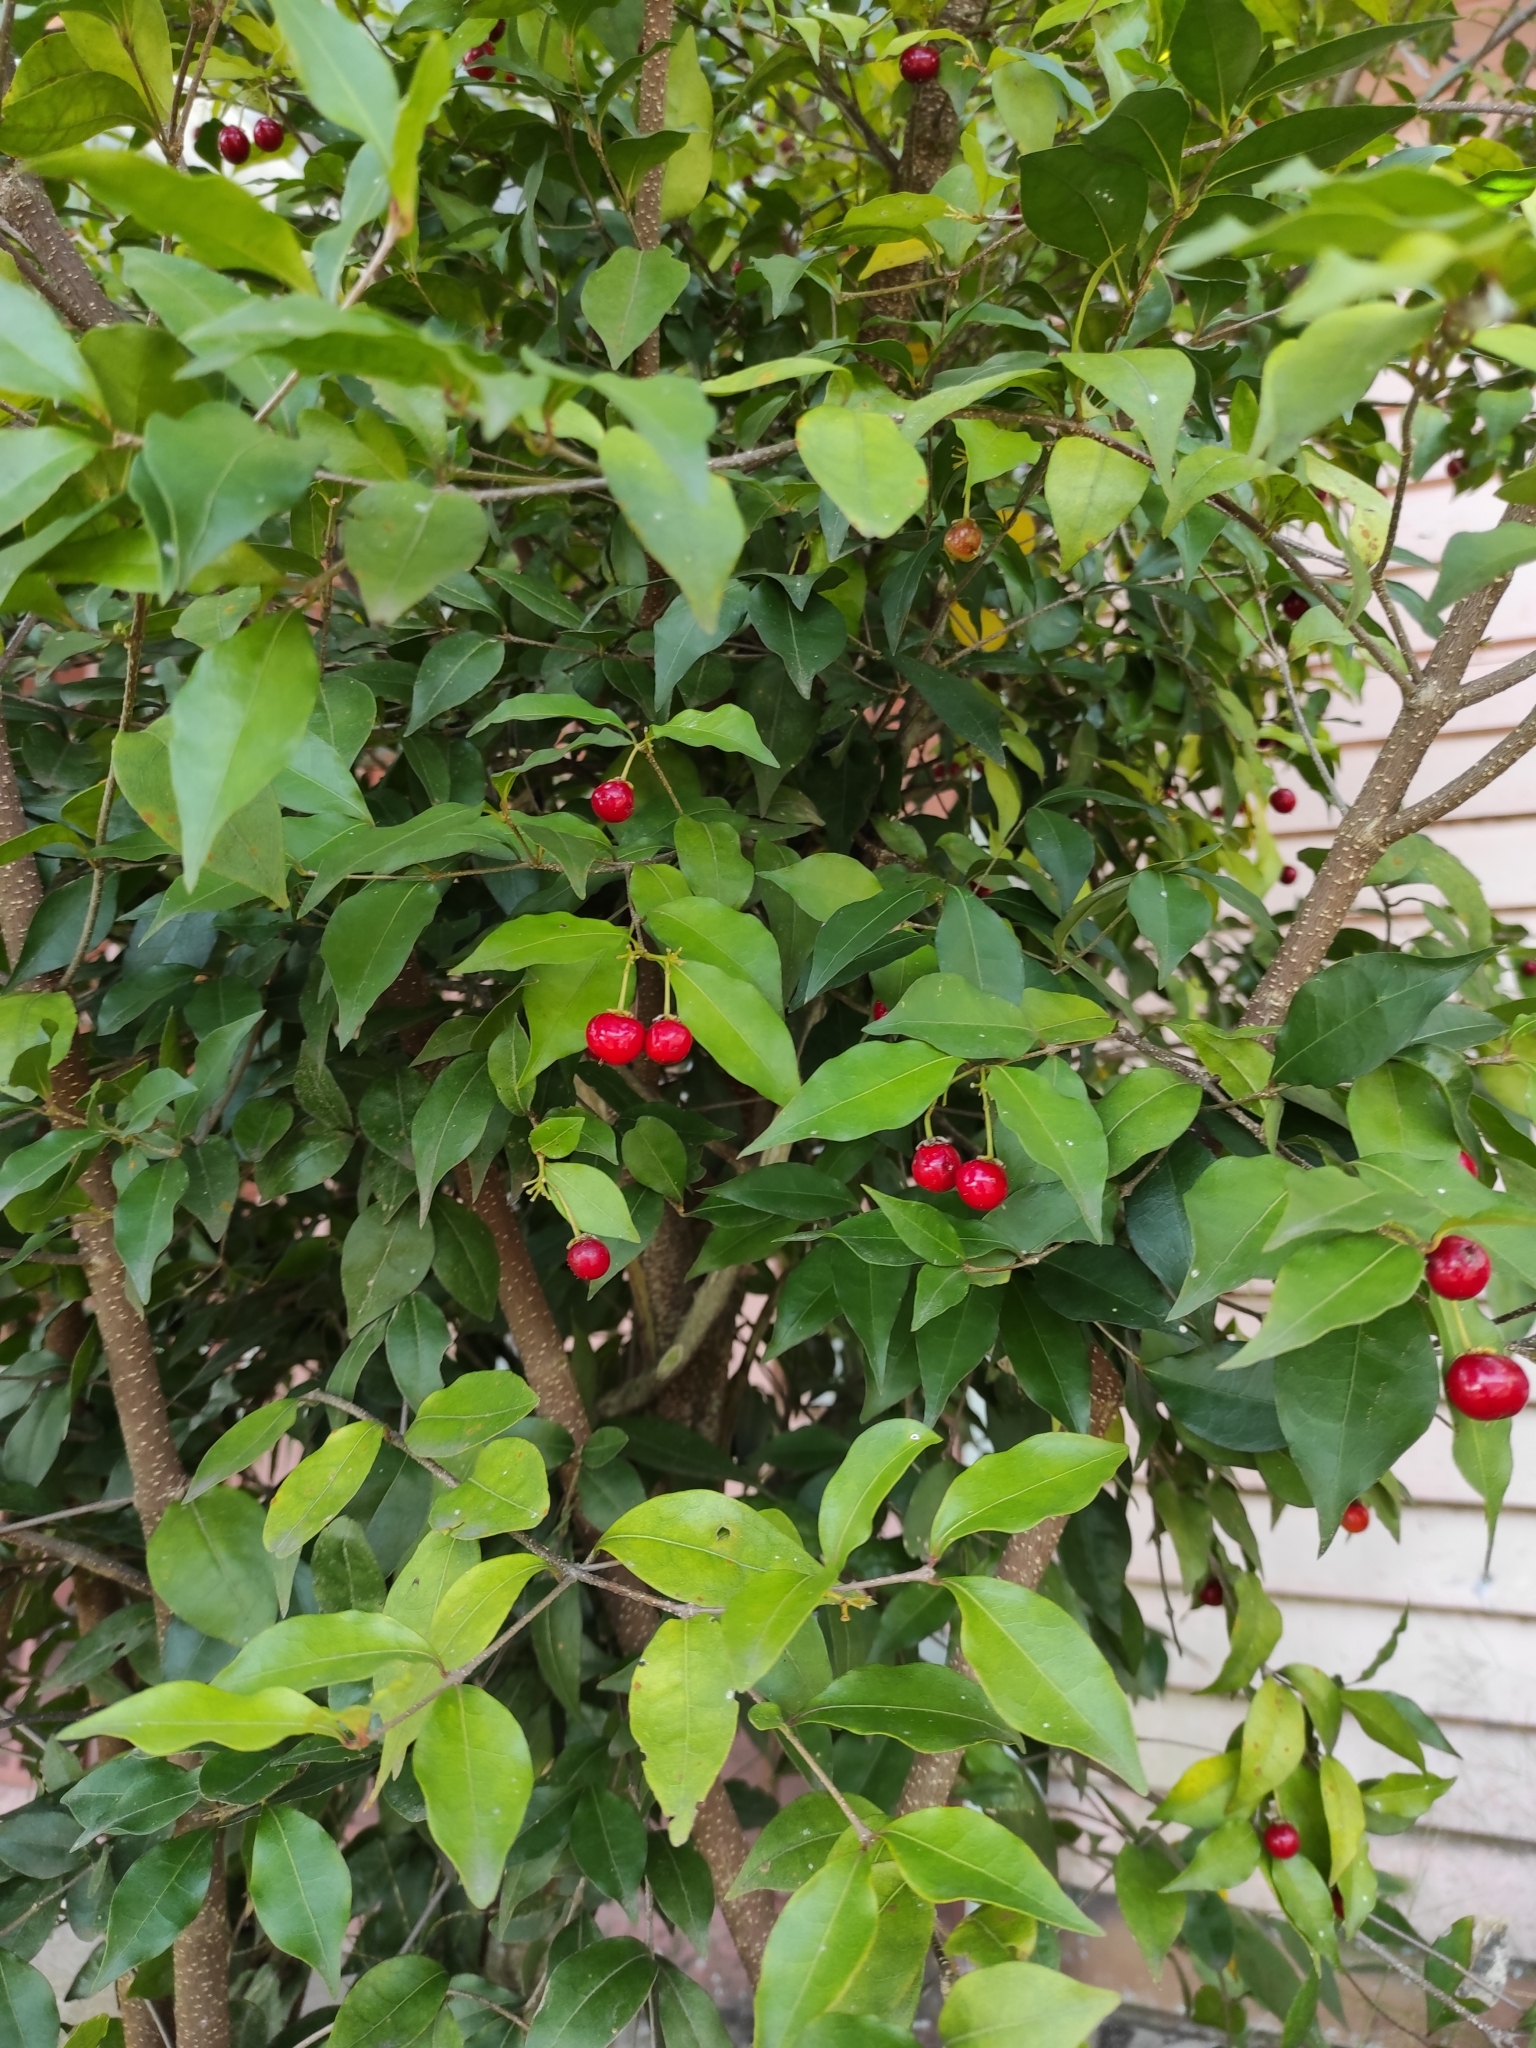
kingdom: Plantae
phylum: Tracheophyta
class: Magnoliopsida
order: Malpighiales
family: Malpighiaceae
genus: Malpighia
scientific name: Malpighia glabra
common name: Barbados cherry
